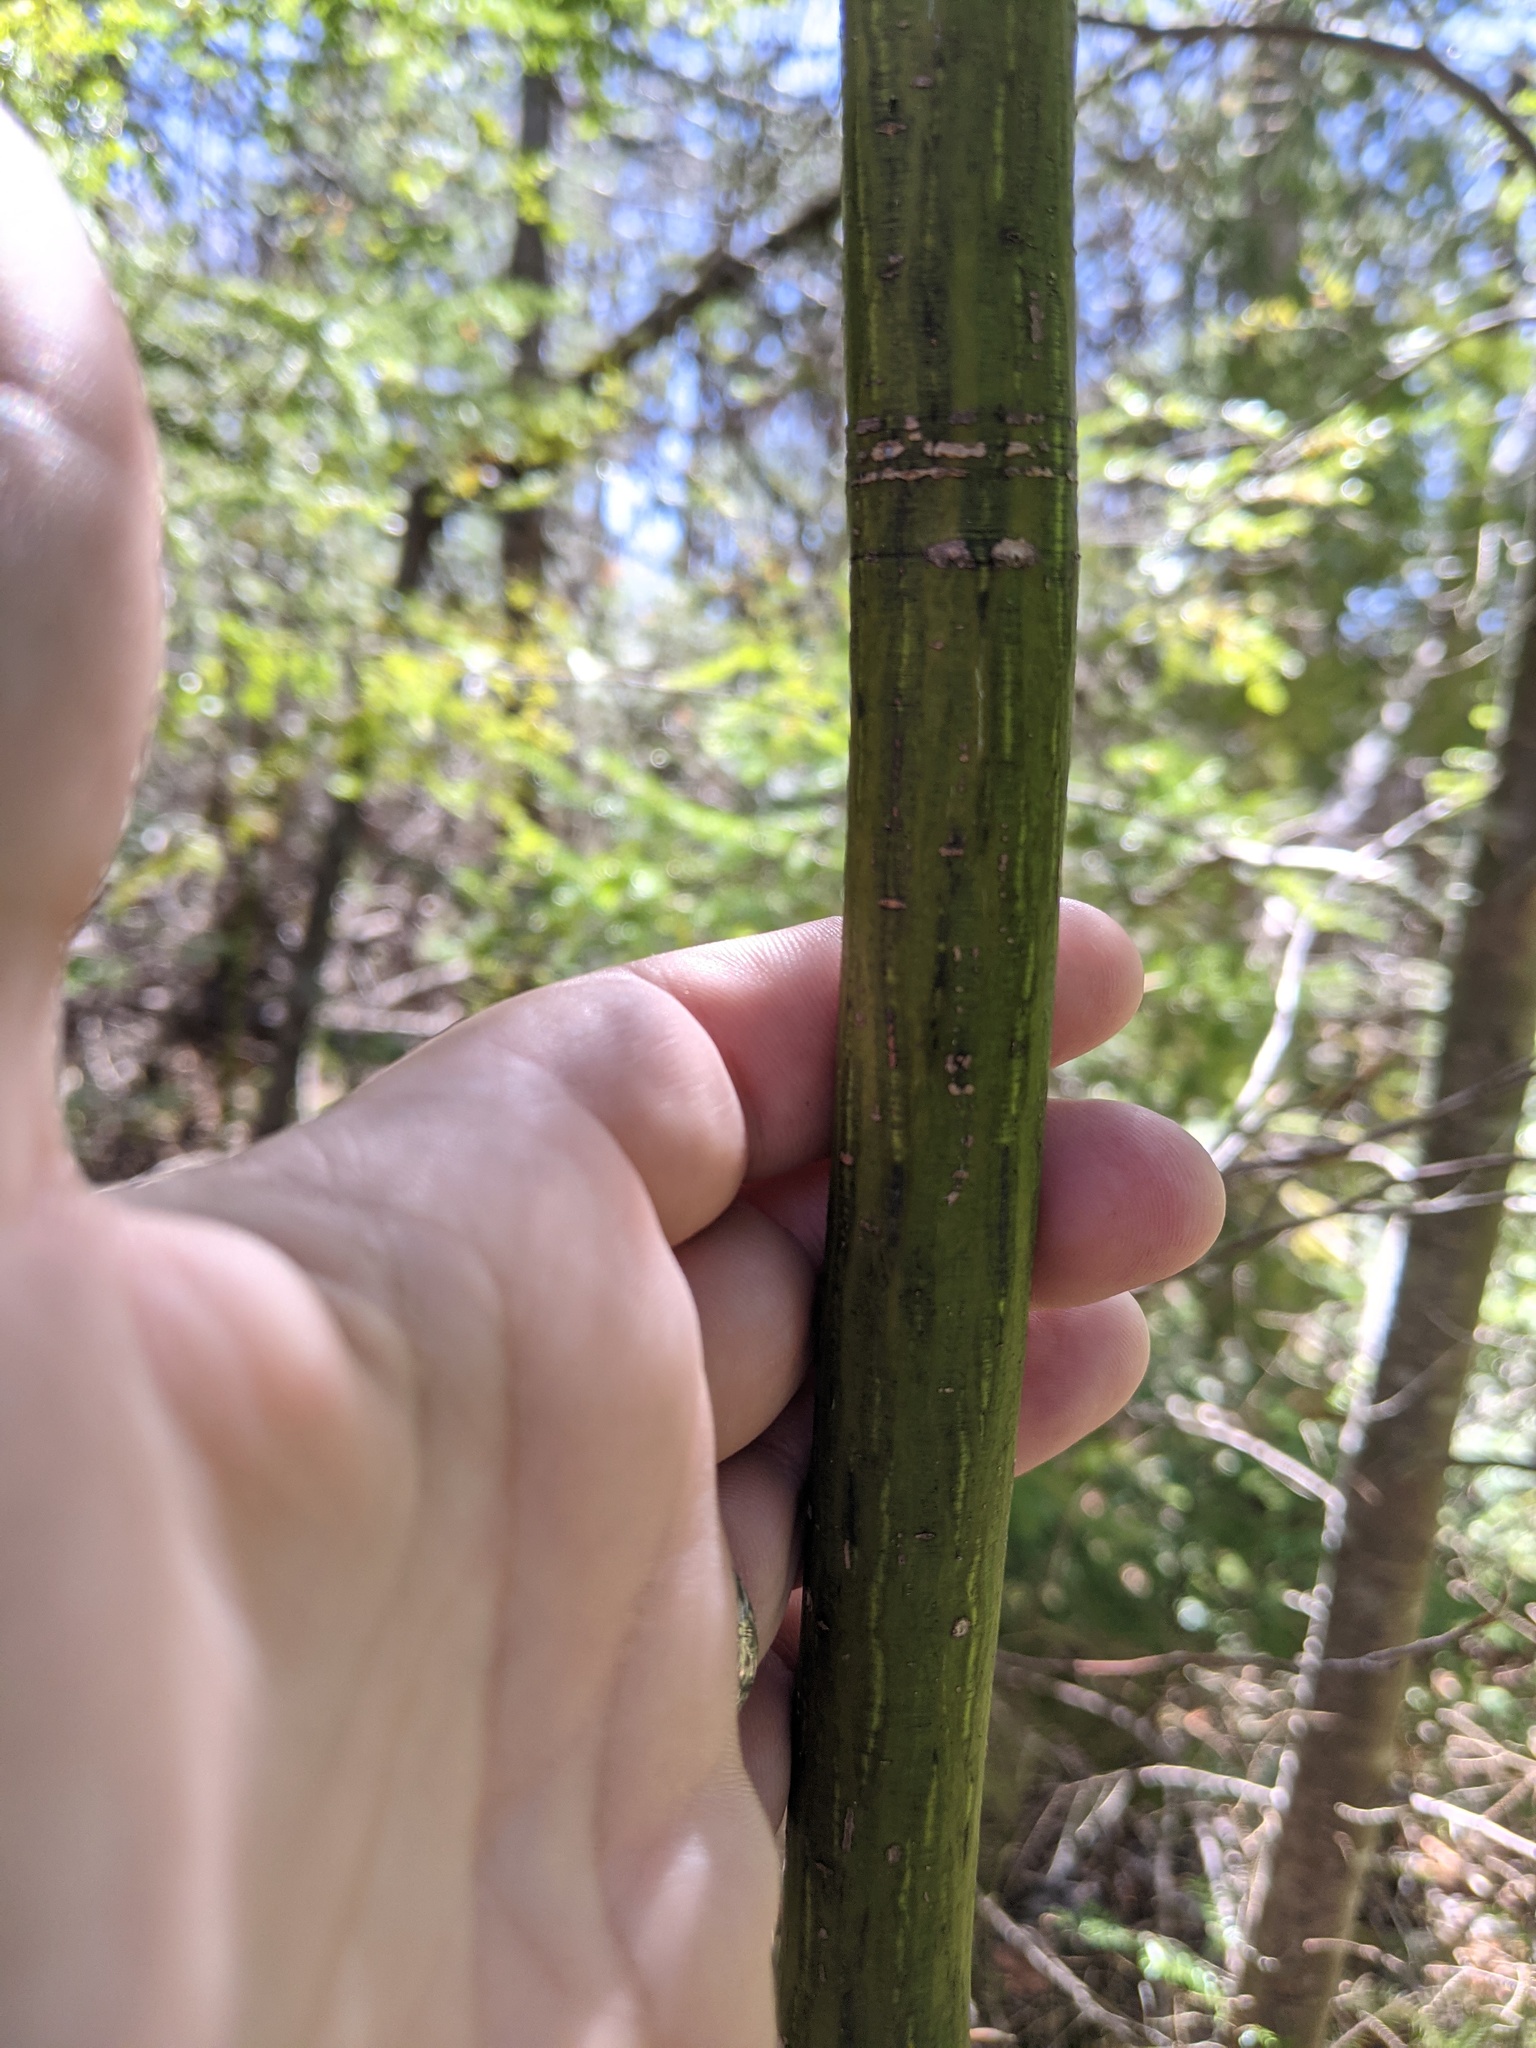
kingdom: Plantae
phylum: Tracheophyta
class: Magnoliopsida
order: Sapindales
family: Sapindaceae
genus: Acer
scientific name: Acer pensylvanicum
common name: Moosewood
